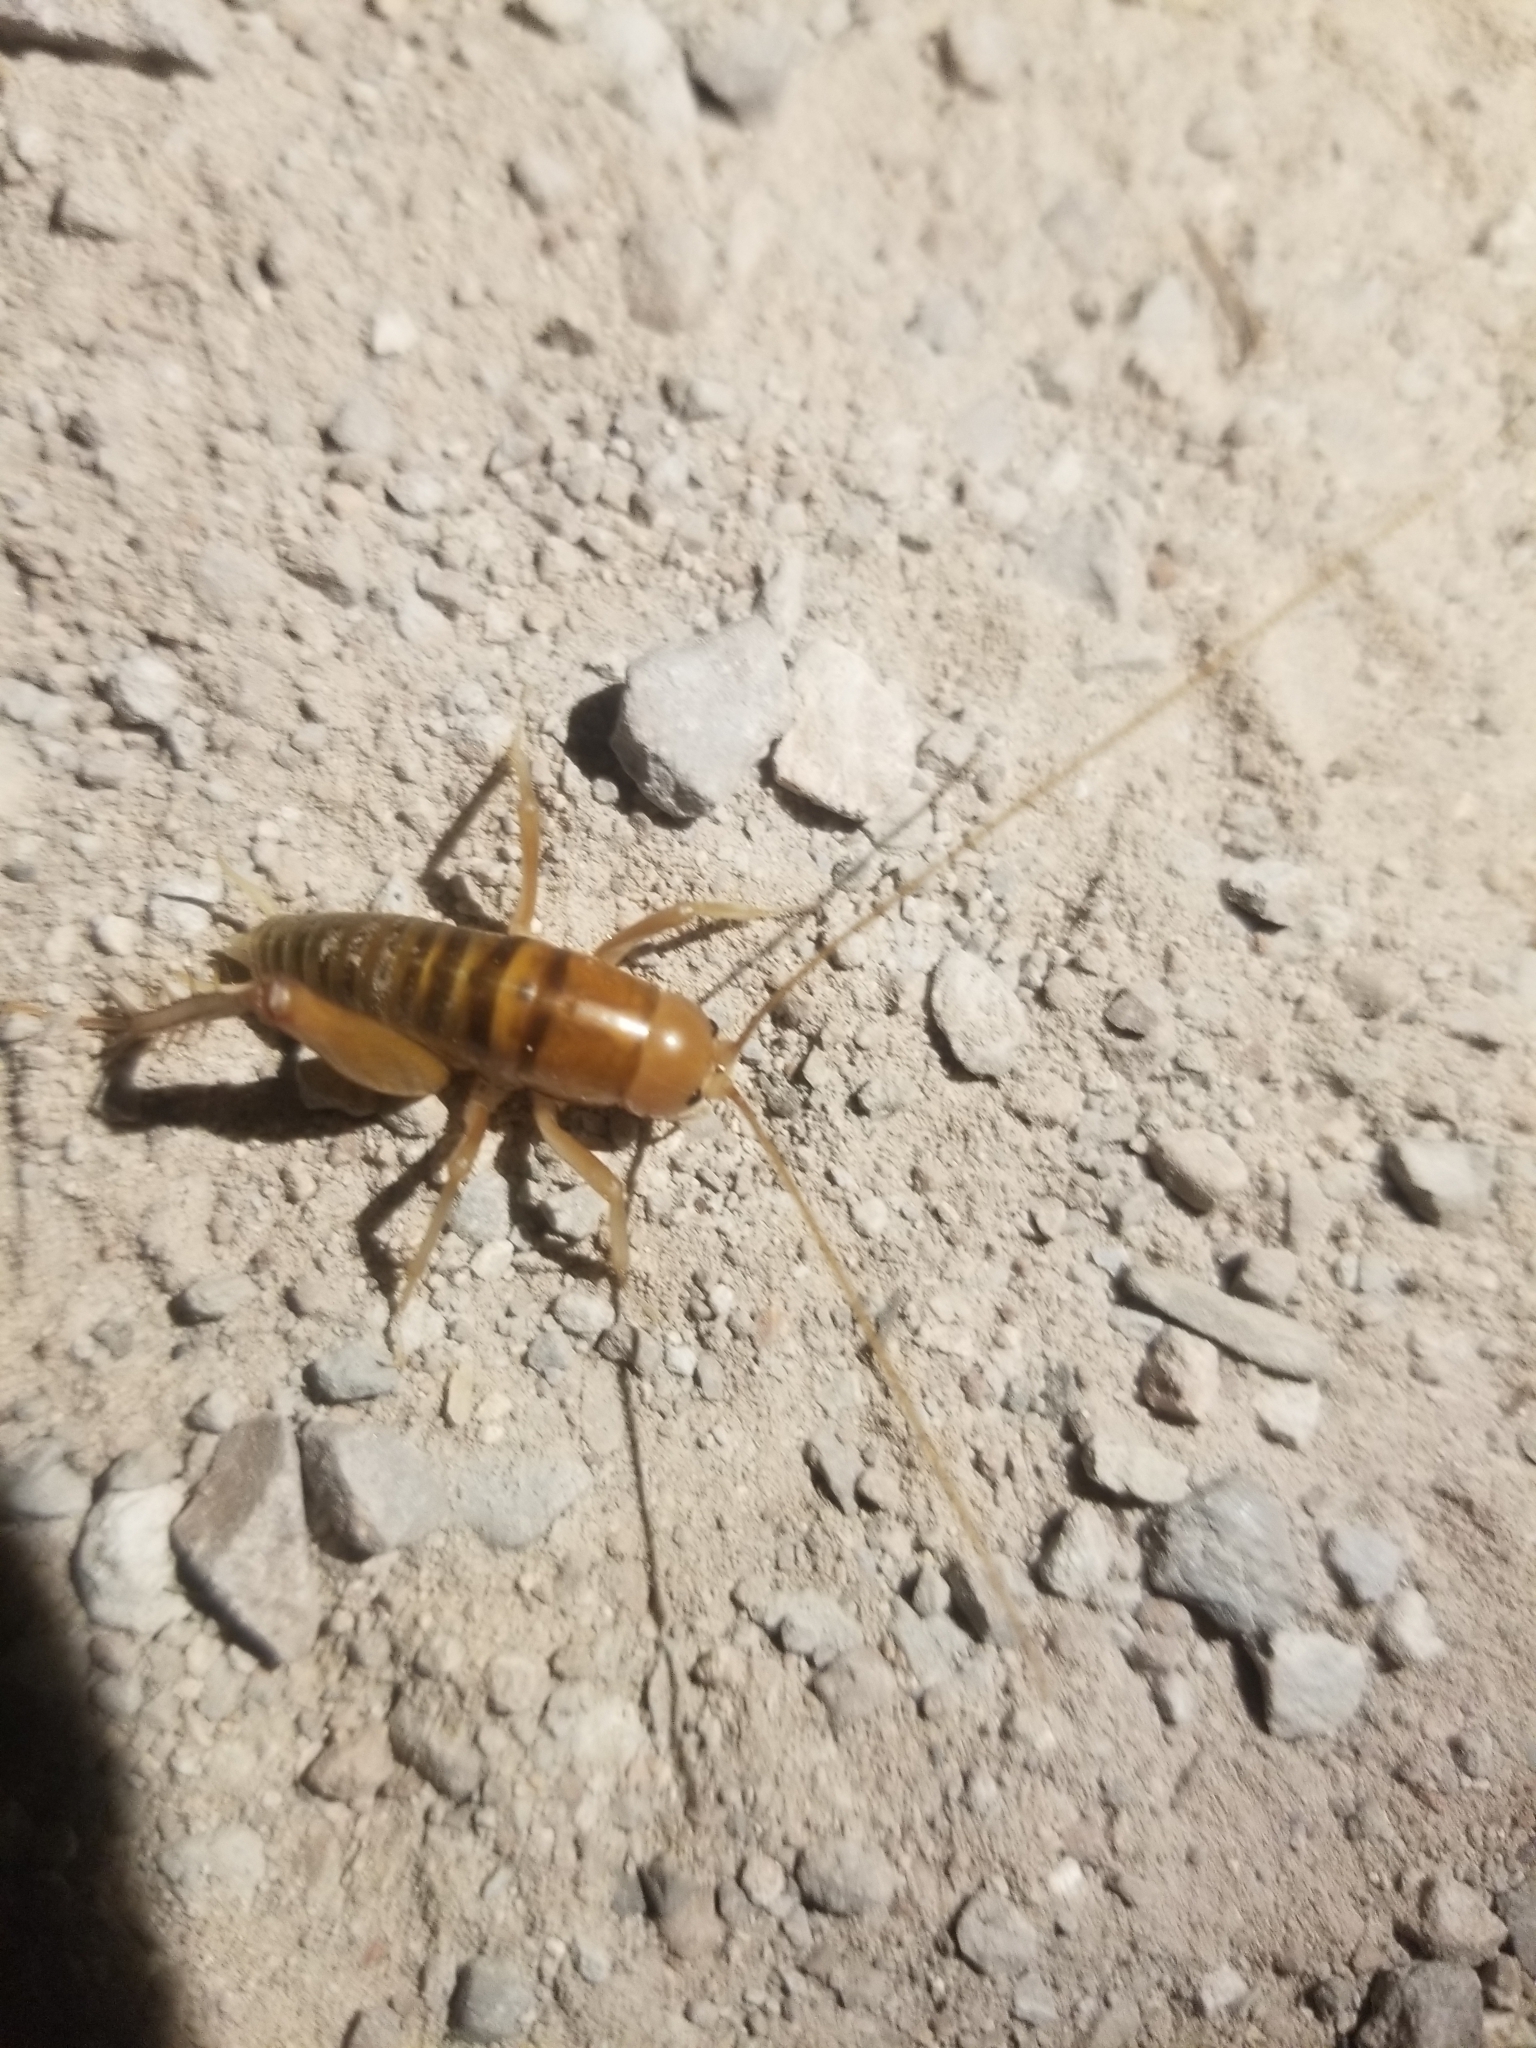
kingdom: Animalia
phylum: Arthropoda
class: Insecta
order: Orthoptera
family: Rhaphidophoridae
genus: Ceuthophilus
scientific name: Ceuthophilus californianus
